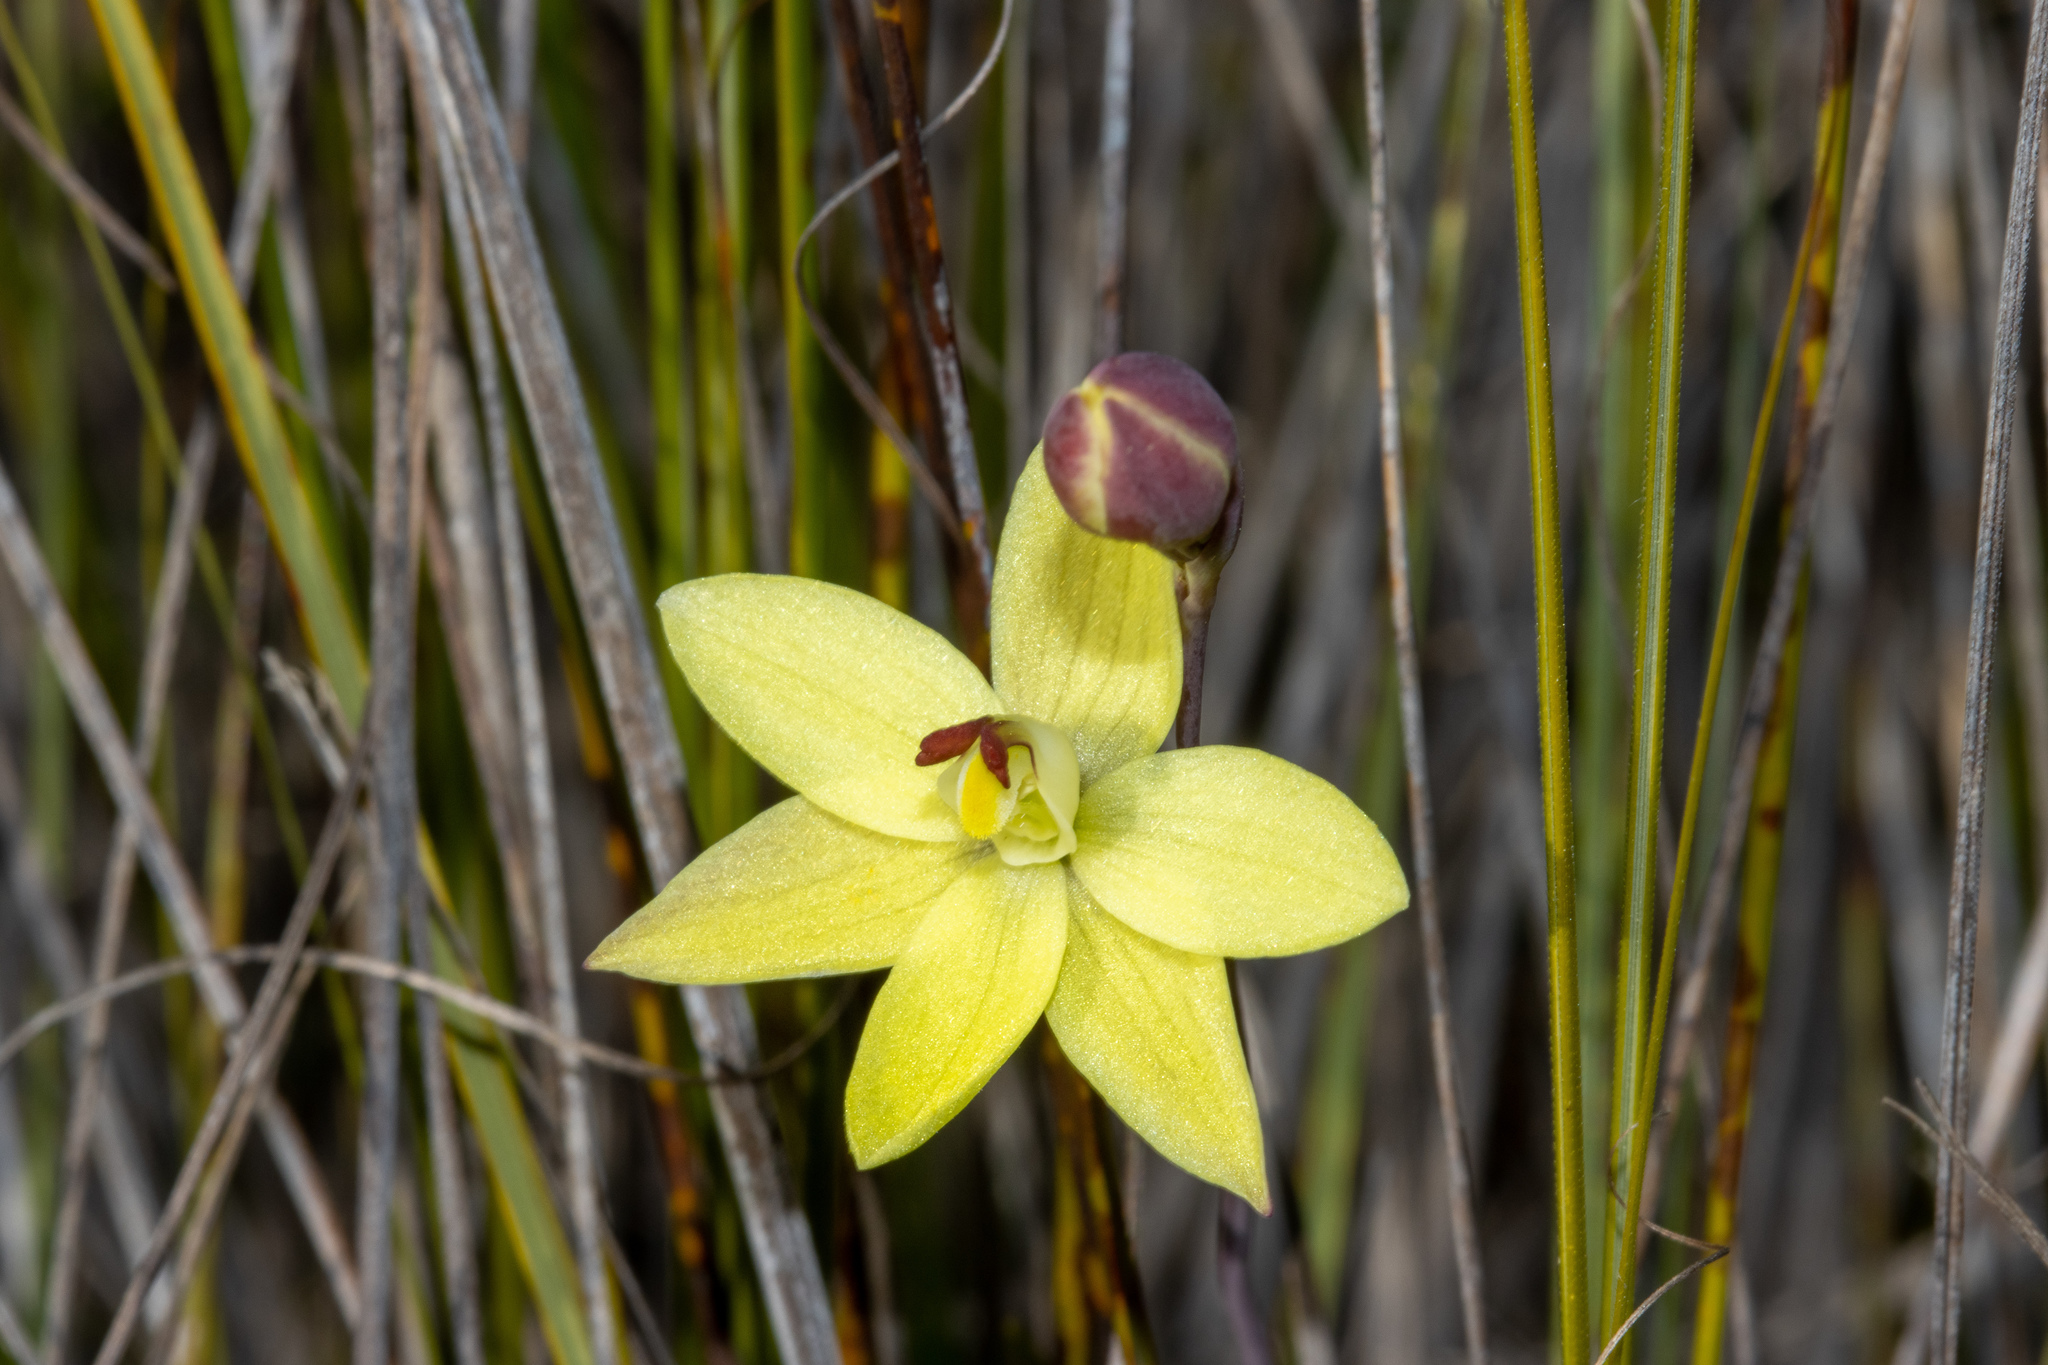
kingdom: Plantae
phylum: Tracheophyta
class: Liliopsida
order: Asparagales
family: Orchidaceae
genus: Thelymitra
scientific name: Thelymitra antennifera
